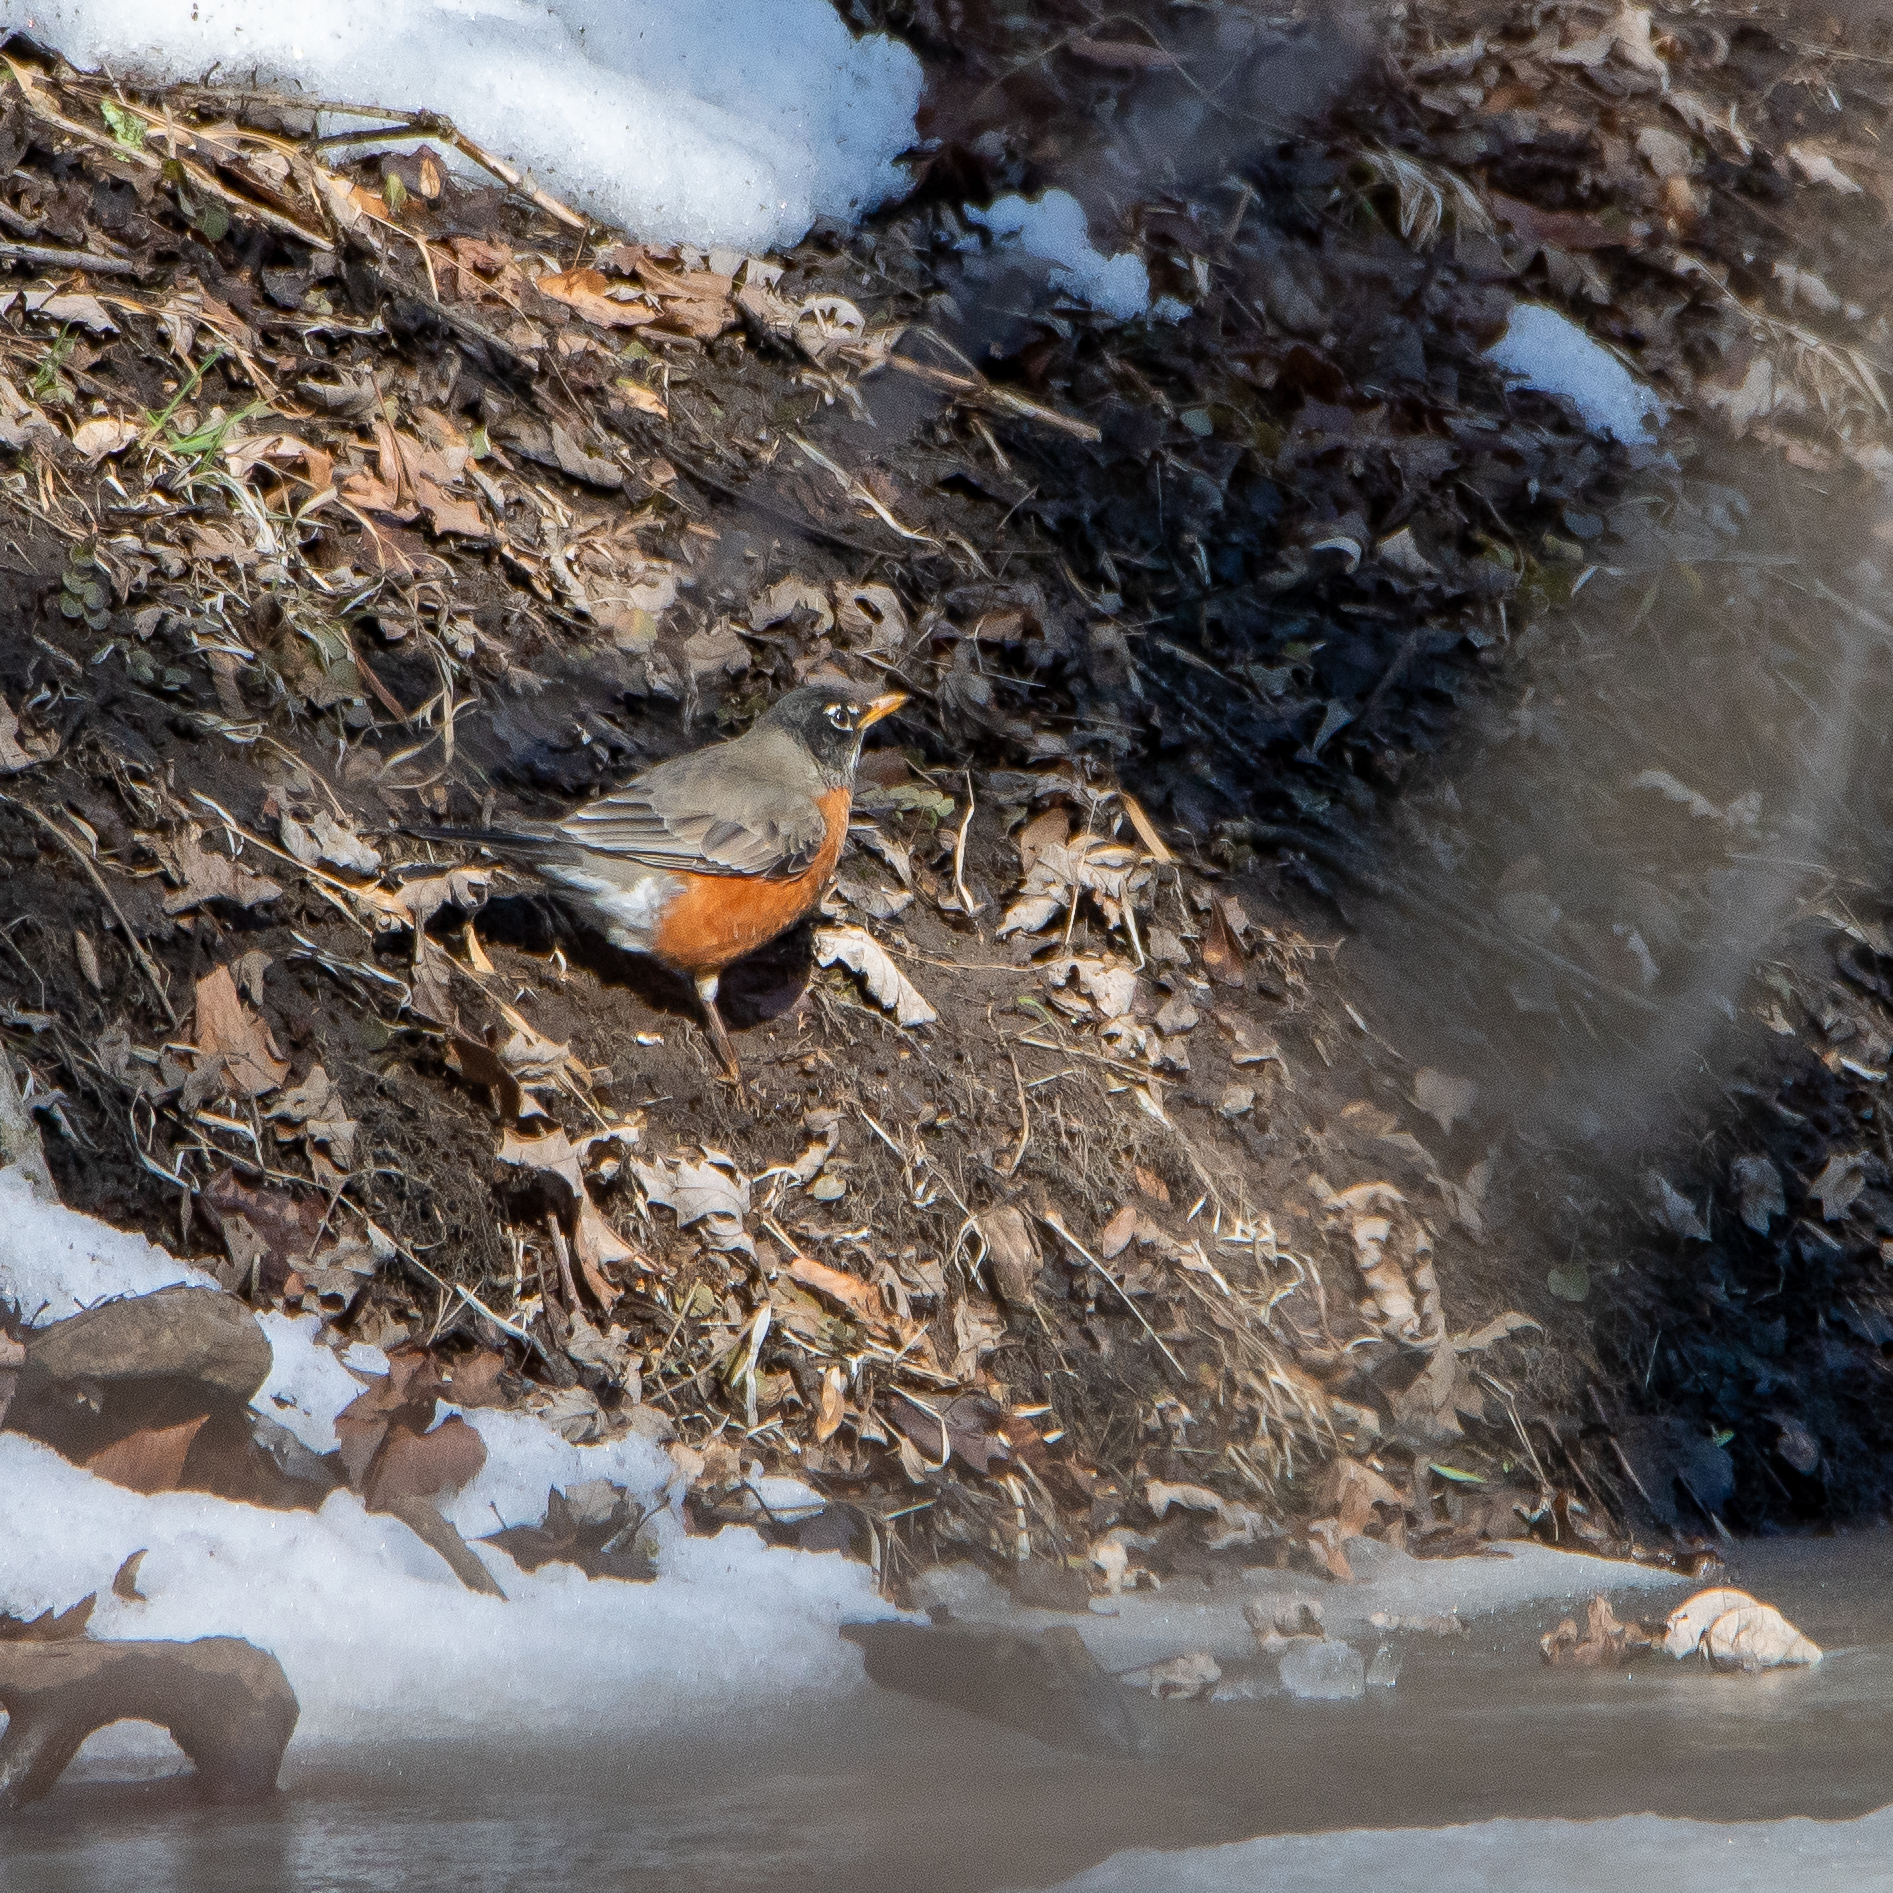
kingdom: Animalia
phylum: Chordata
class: Aves
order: Passeriformes
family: Turdidae
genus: Turdus
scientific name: Turdus migratorius
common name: American robin
